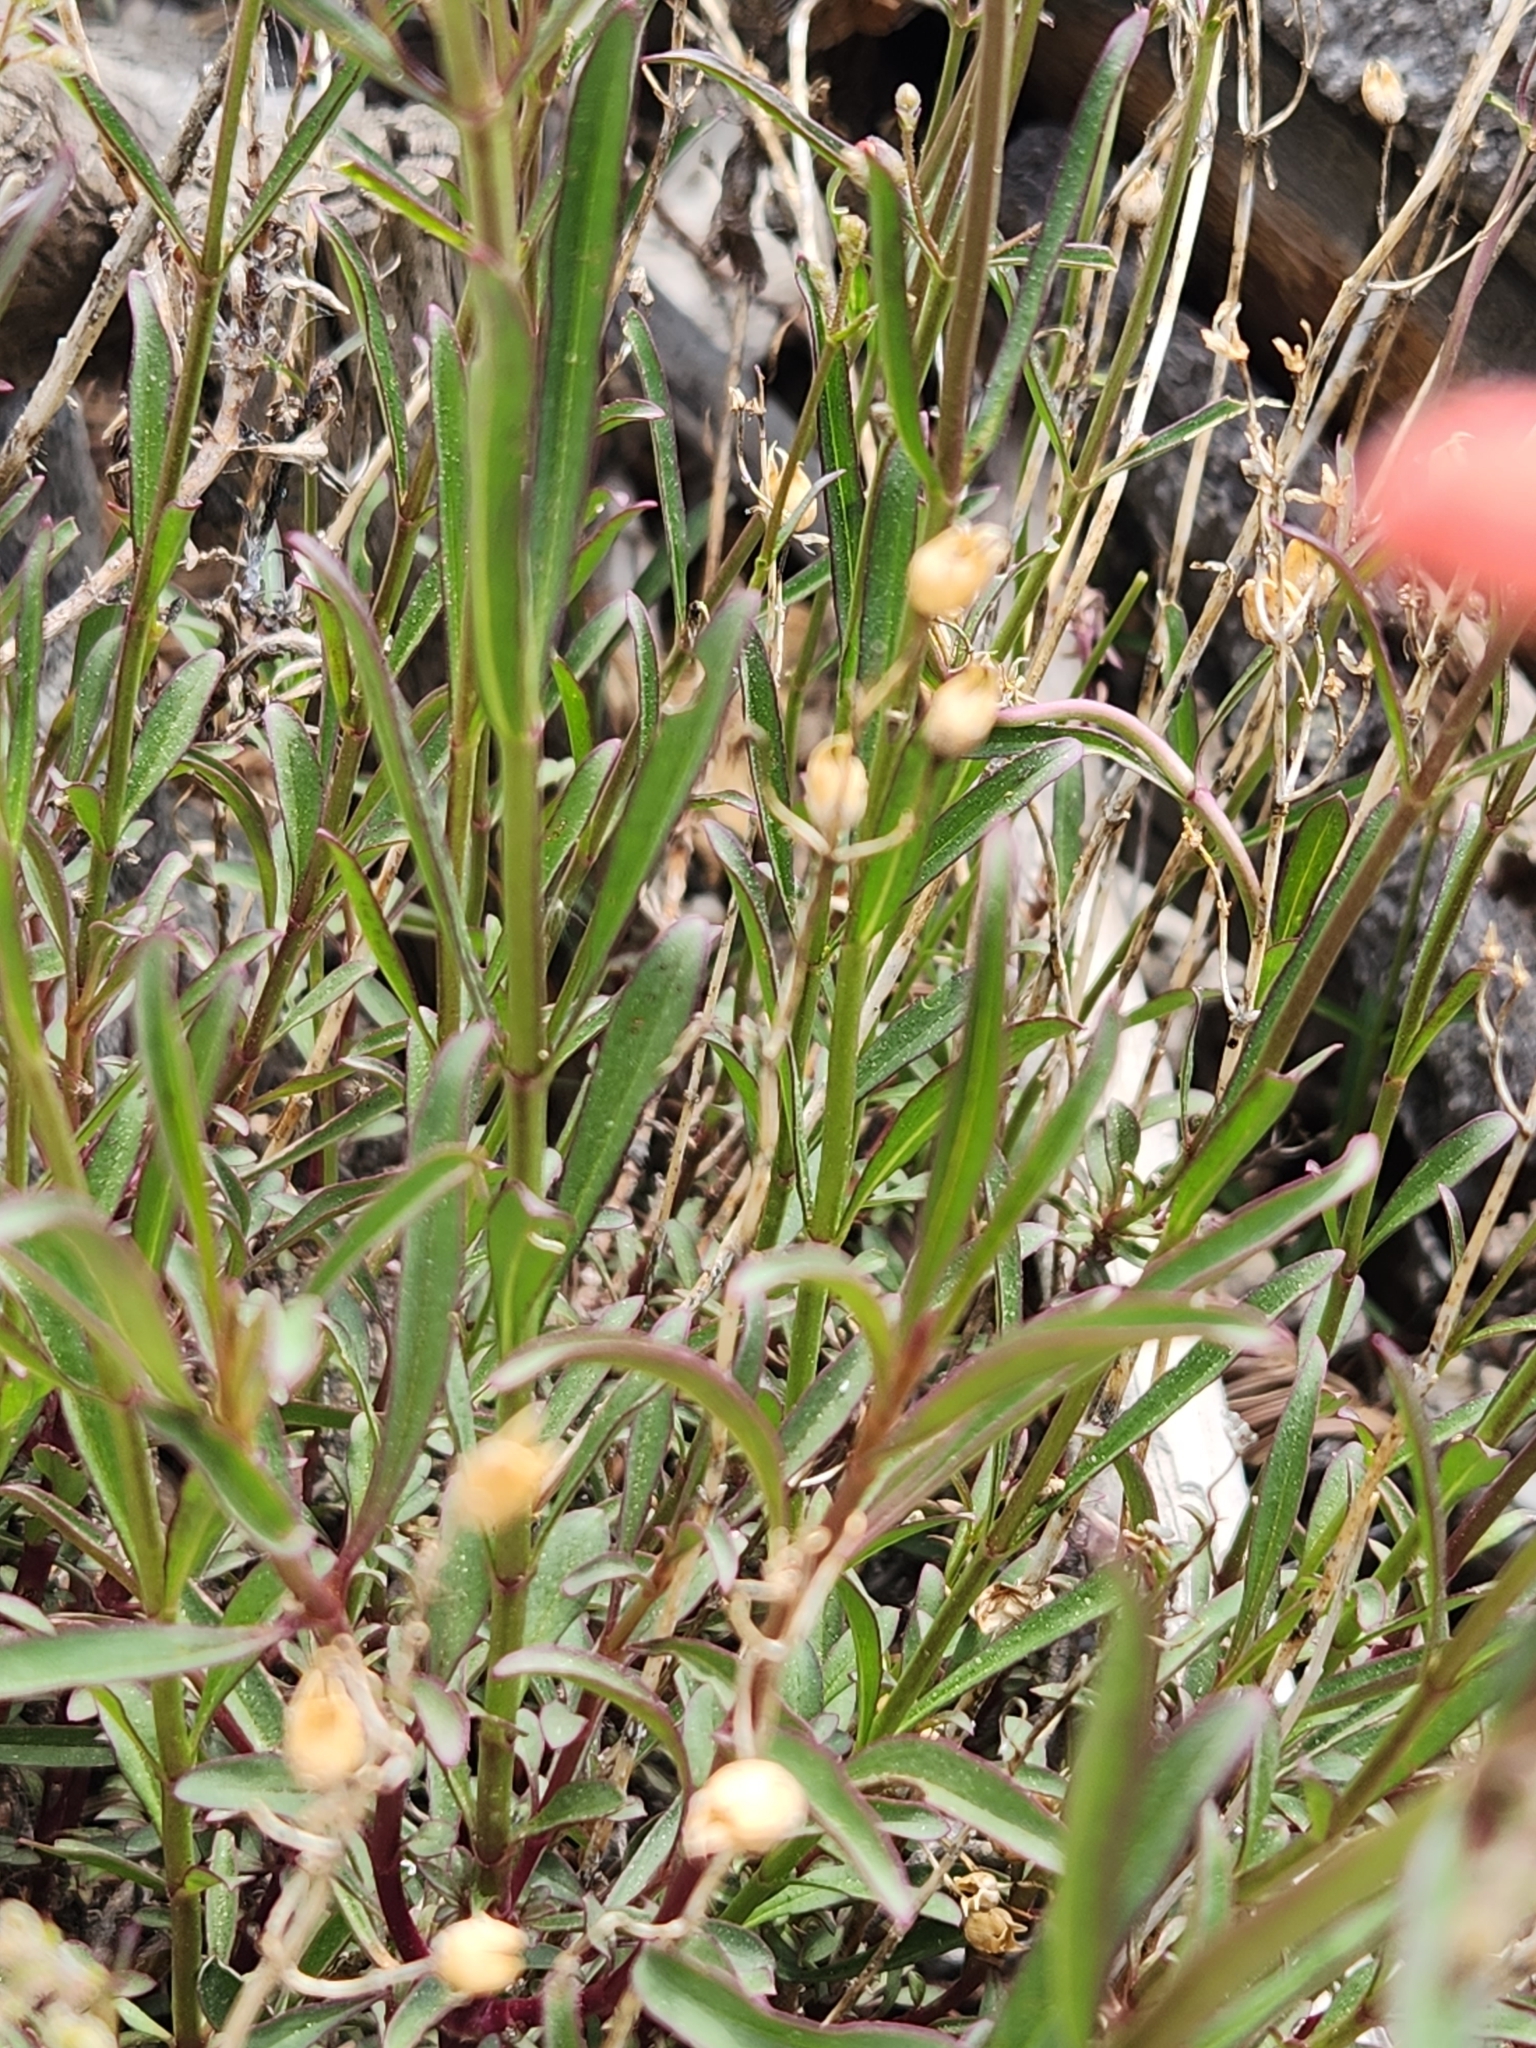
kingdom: Plantae
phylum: Tracheophyta
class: Magnoliopsida
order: Lamiales
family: Plantaginaceae
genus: Penstemon
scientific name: Penstemon rostriflorus
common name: Bridges's penstemon
